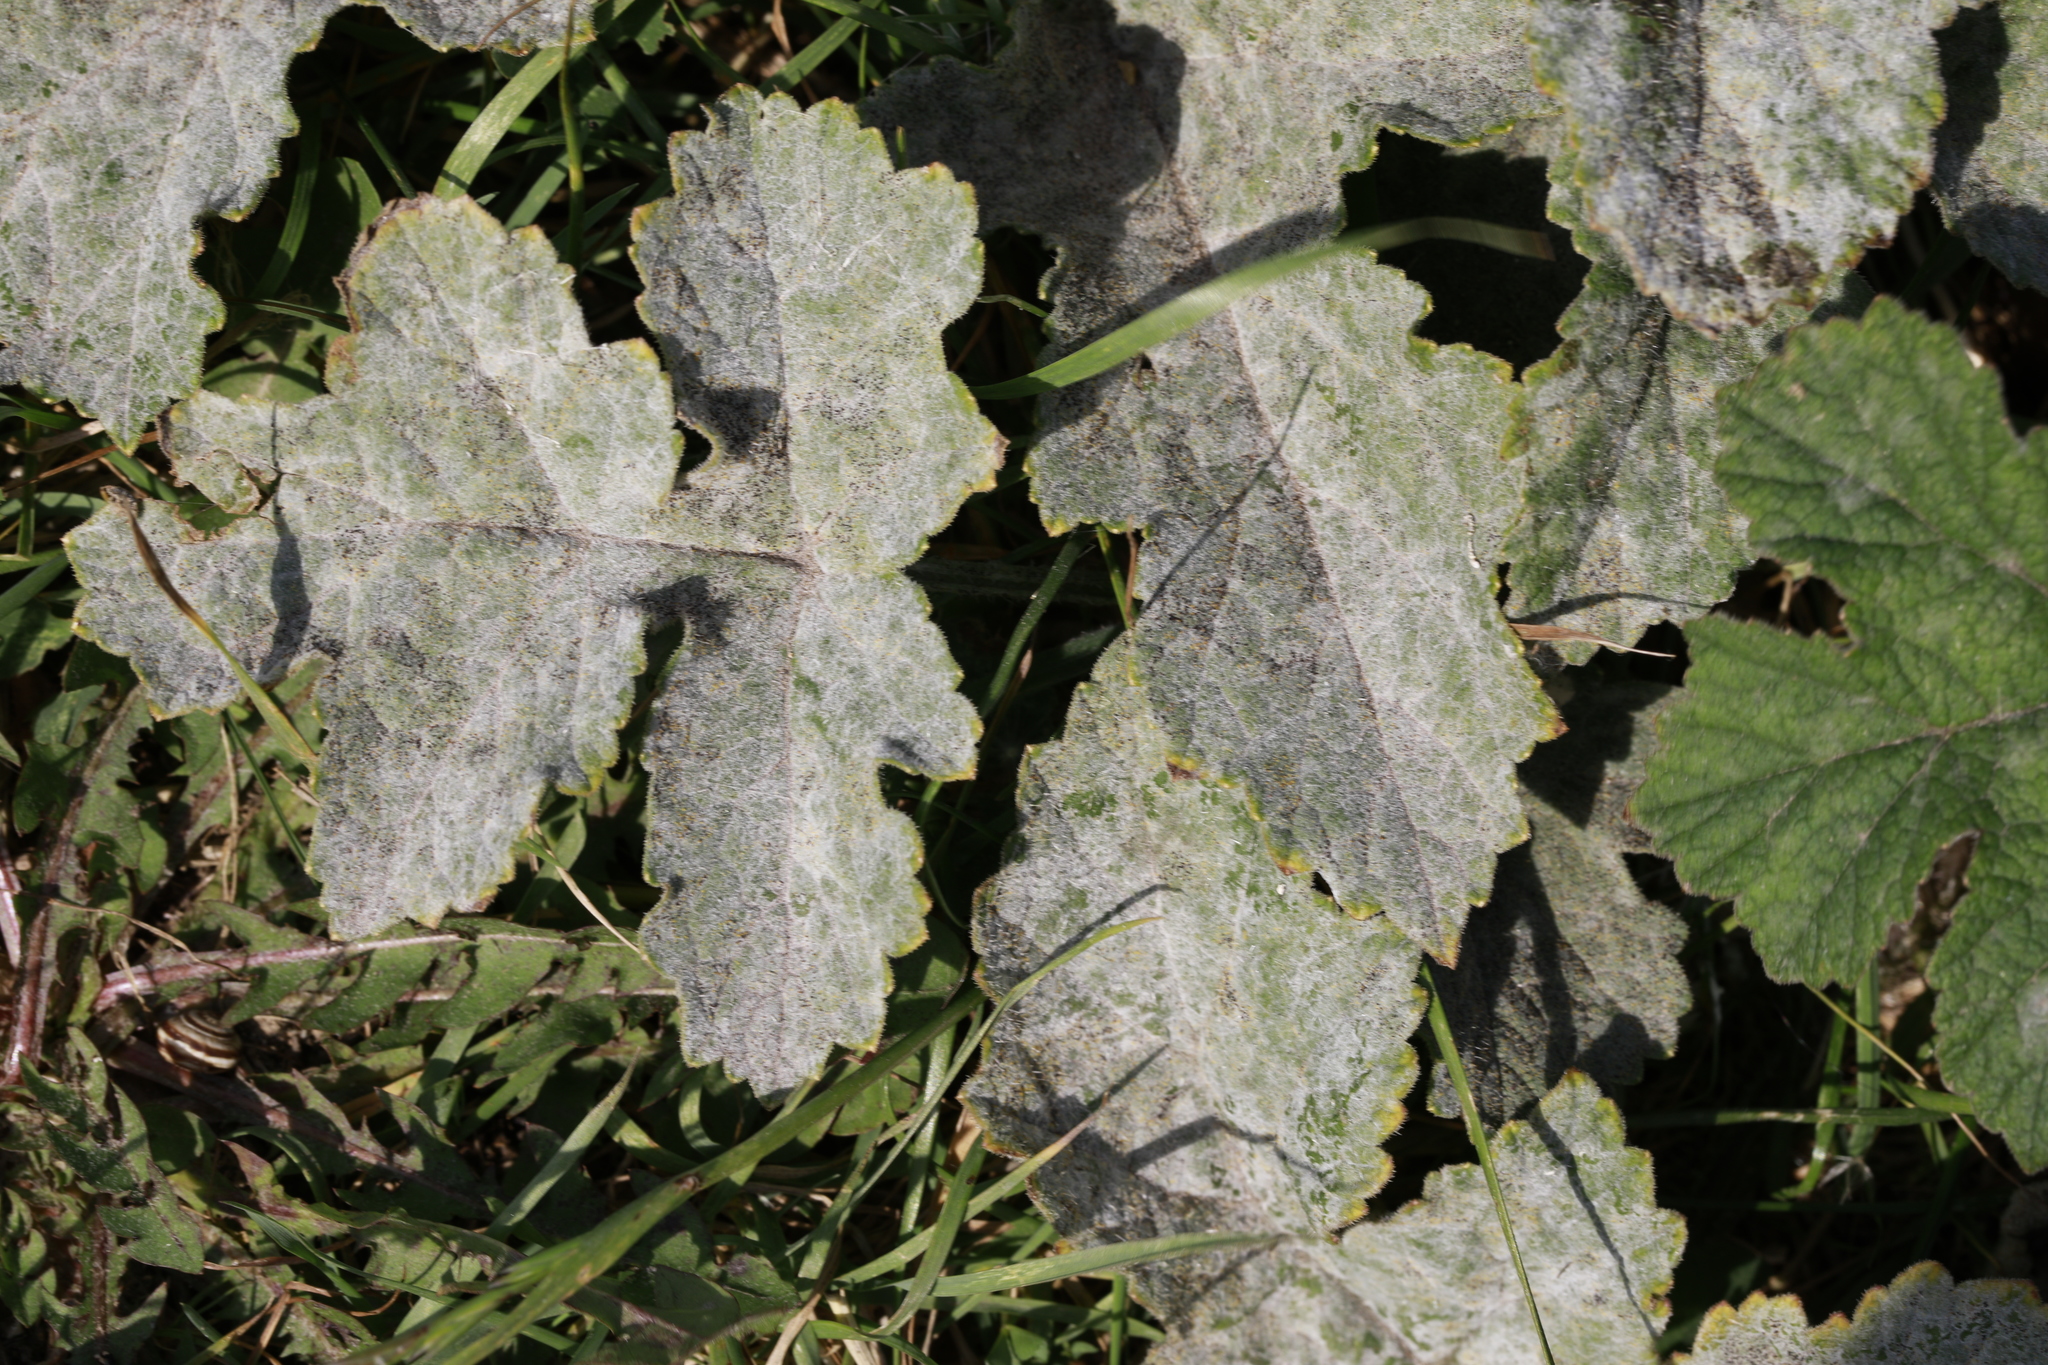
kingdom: Fungi
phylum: Ascomycota
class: Leotiomycetes
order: Helotiales
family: Erysiphaceae
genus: Erysiphe
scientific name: Erysiphe heraclei
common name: Umbellifer mildew
